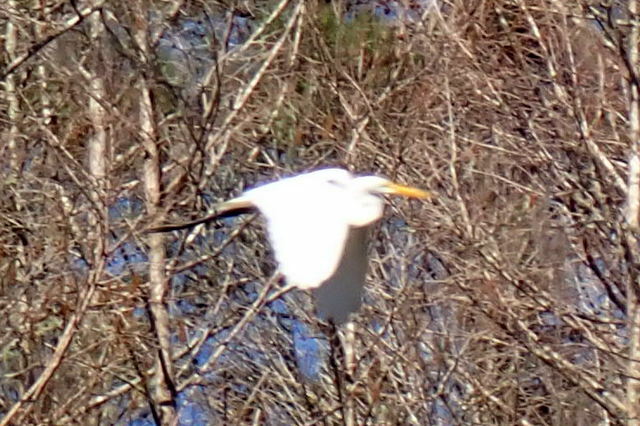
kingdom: Animalia
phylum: Chordata
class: Aves
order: Pelecaniformes
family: Ardeidae
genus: Ardea
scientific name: Ardea alba
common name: Great egret
